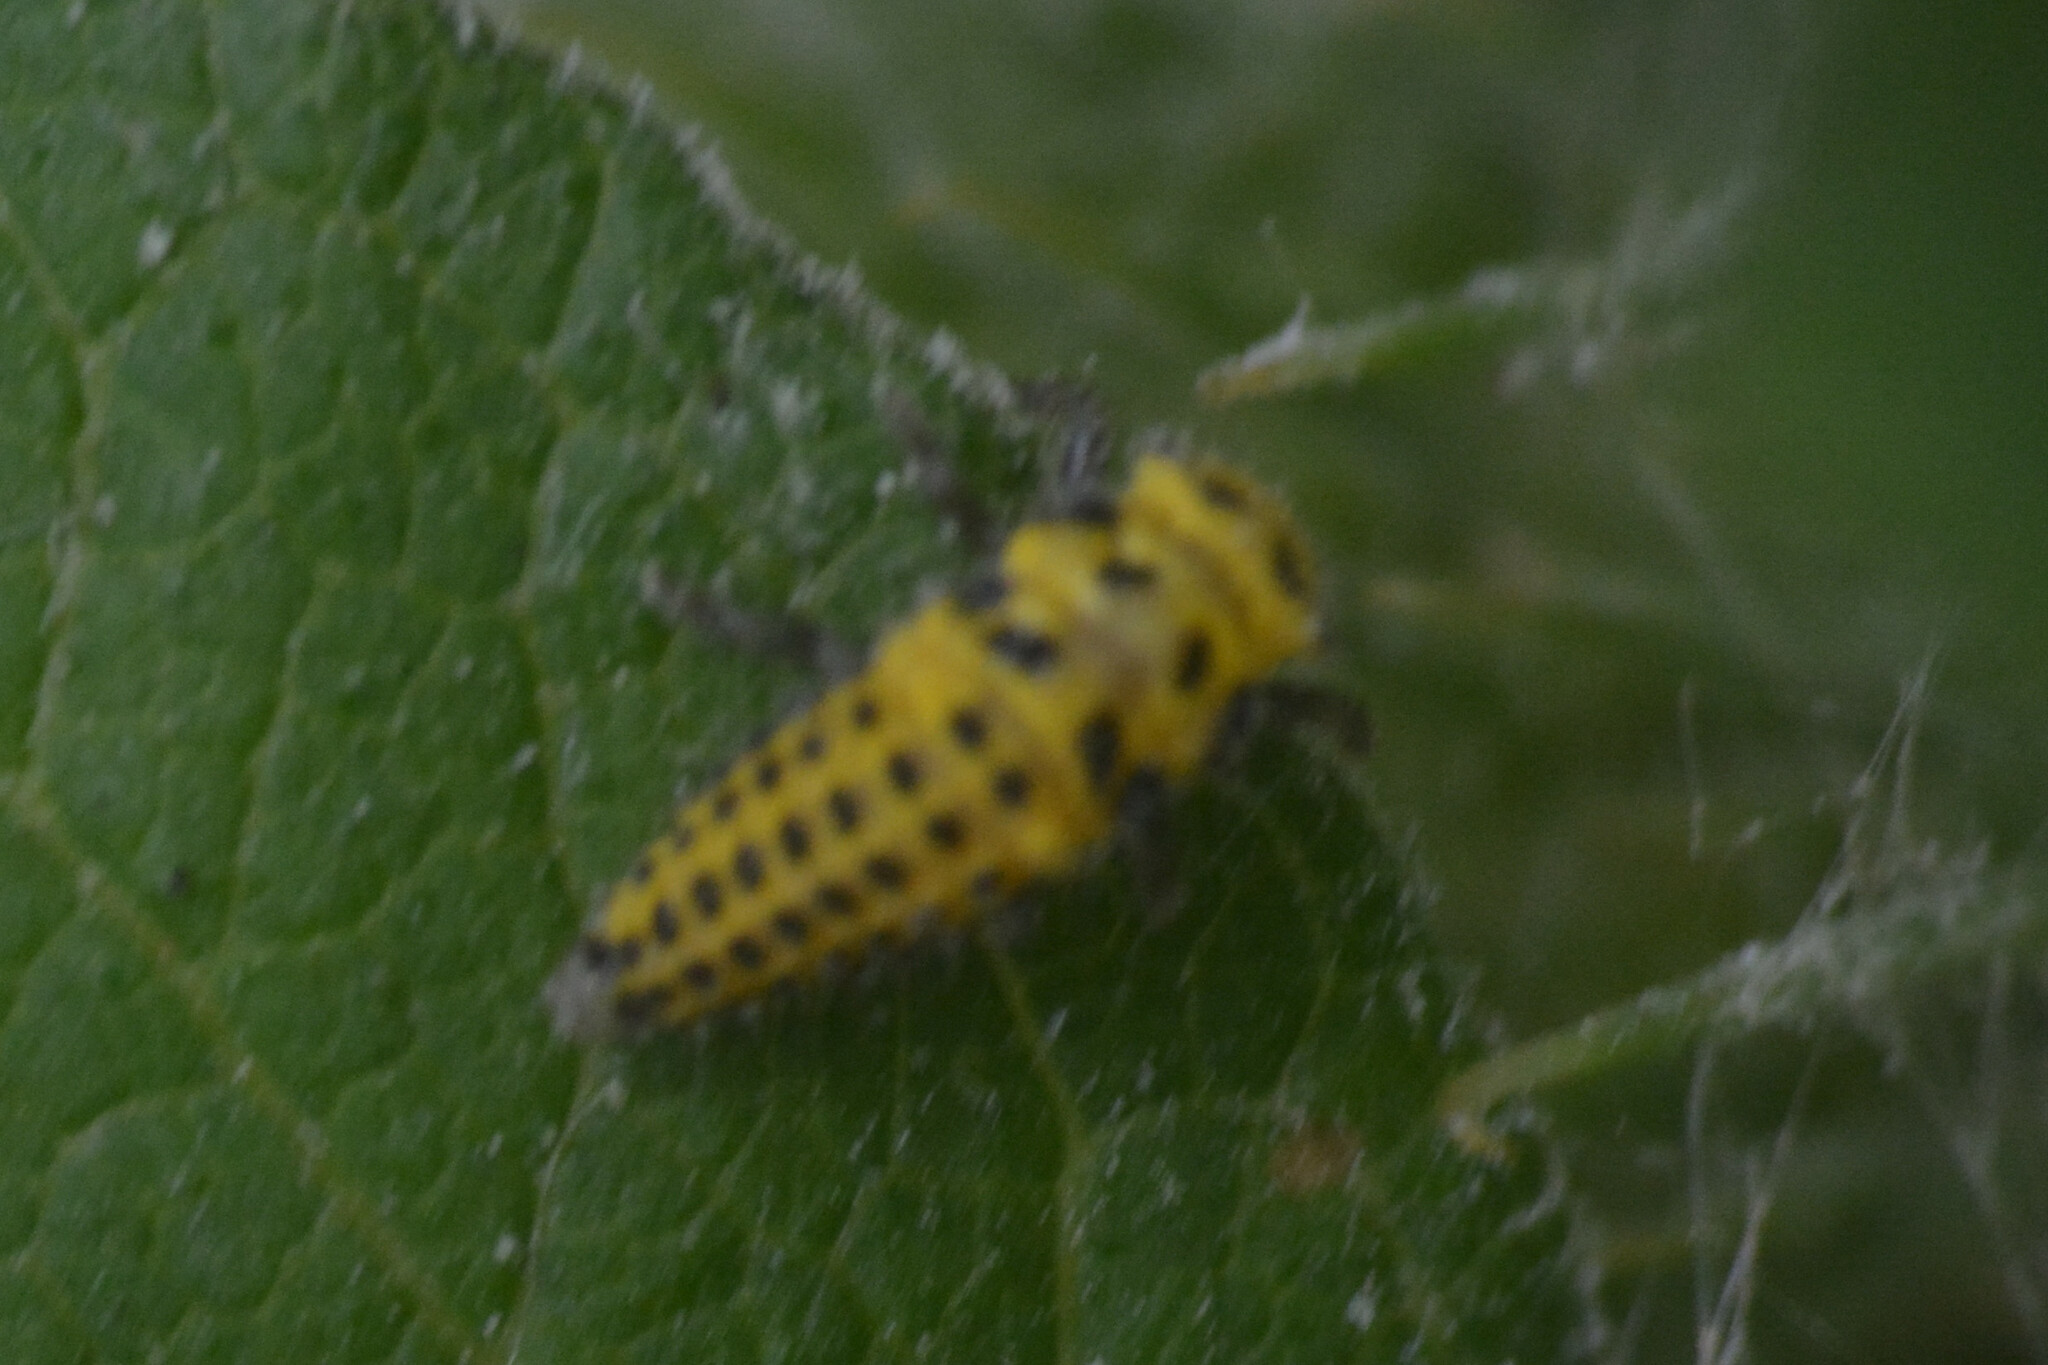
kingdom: Animalia
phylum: Arthropoda
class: Insecta
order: Coleoptera
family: Coccinellidae
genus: Psyllobora
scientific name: Psyllobora vigintiduopunctata
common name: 22-spot ladybird
